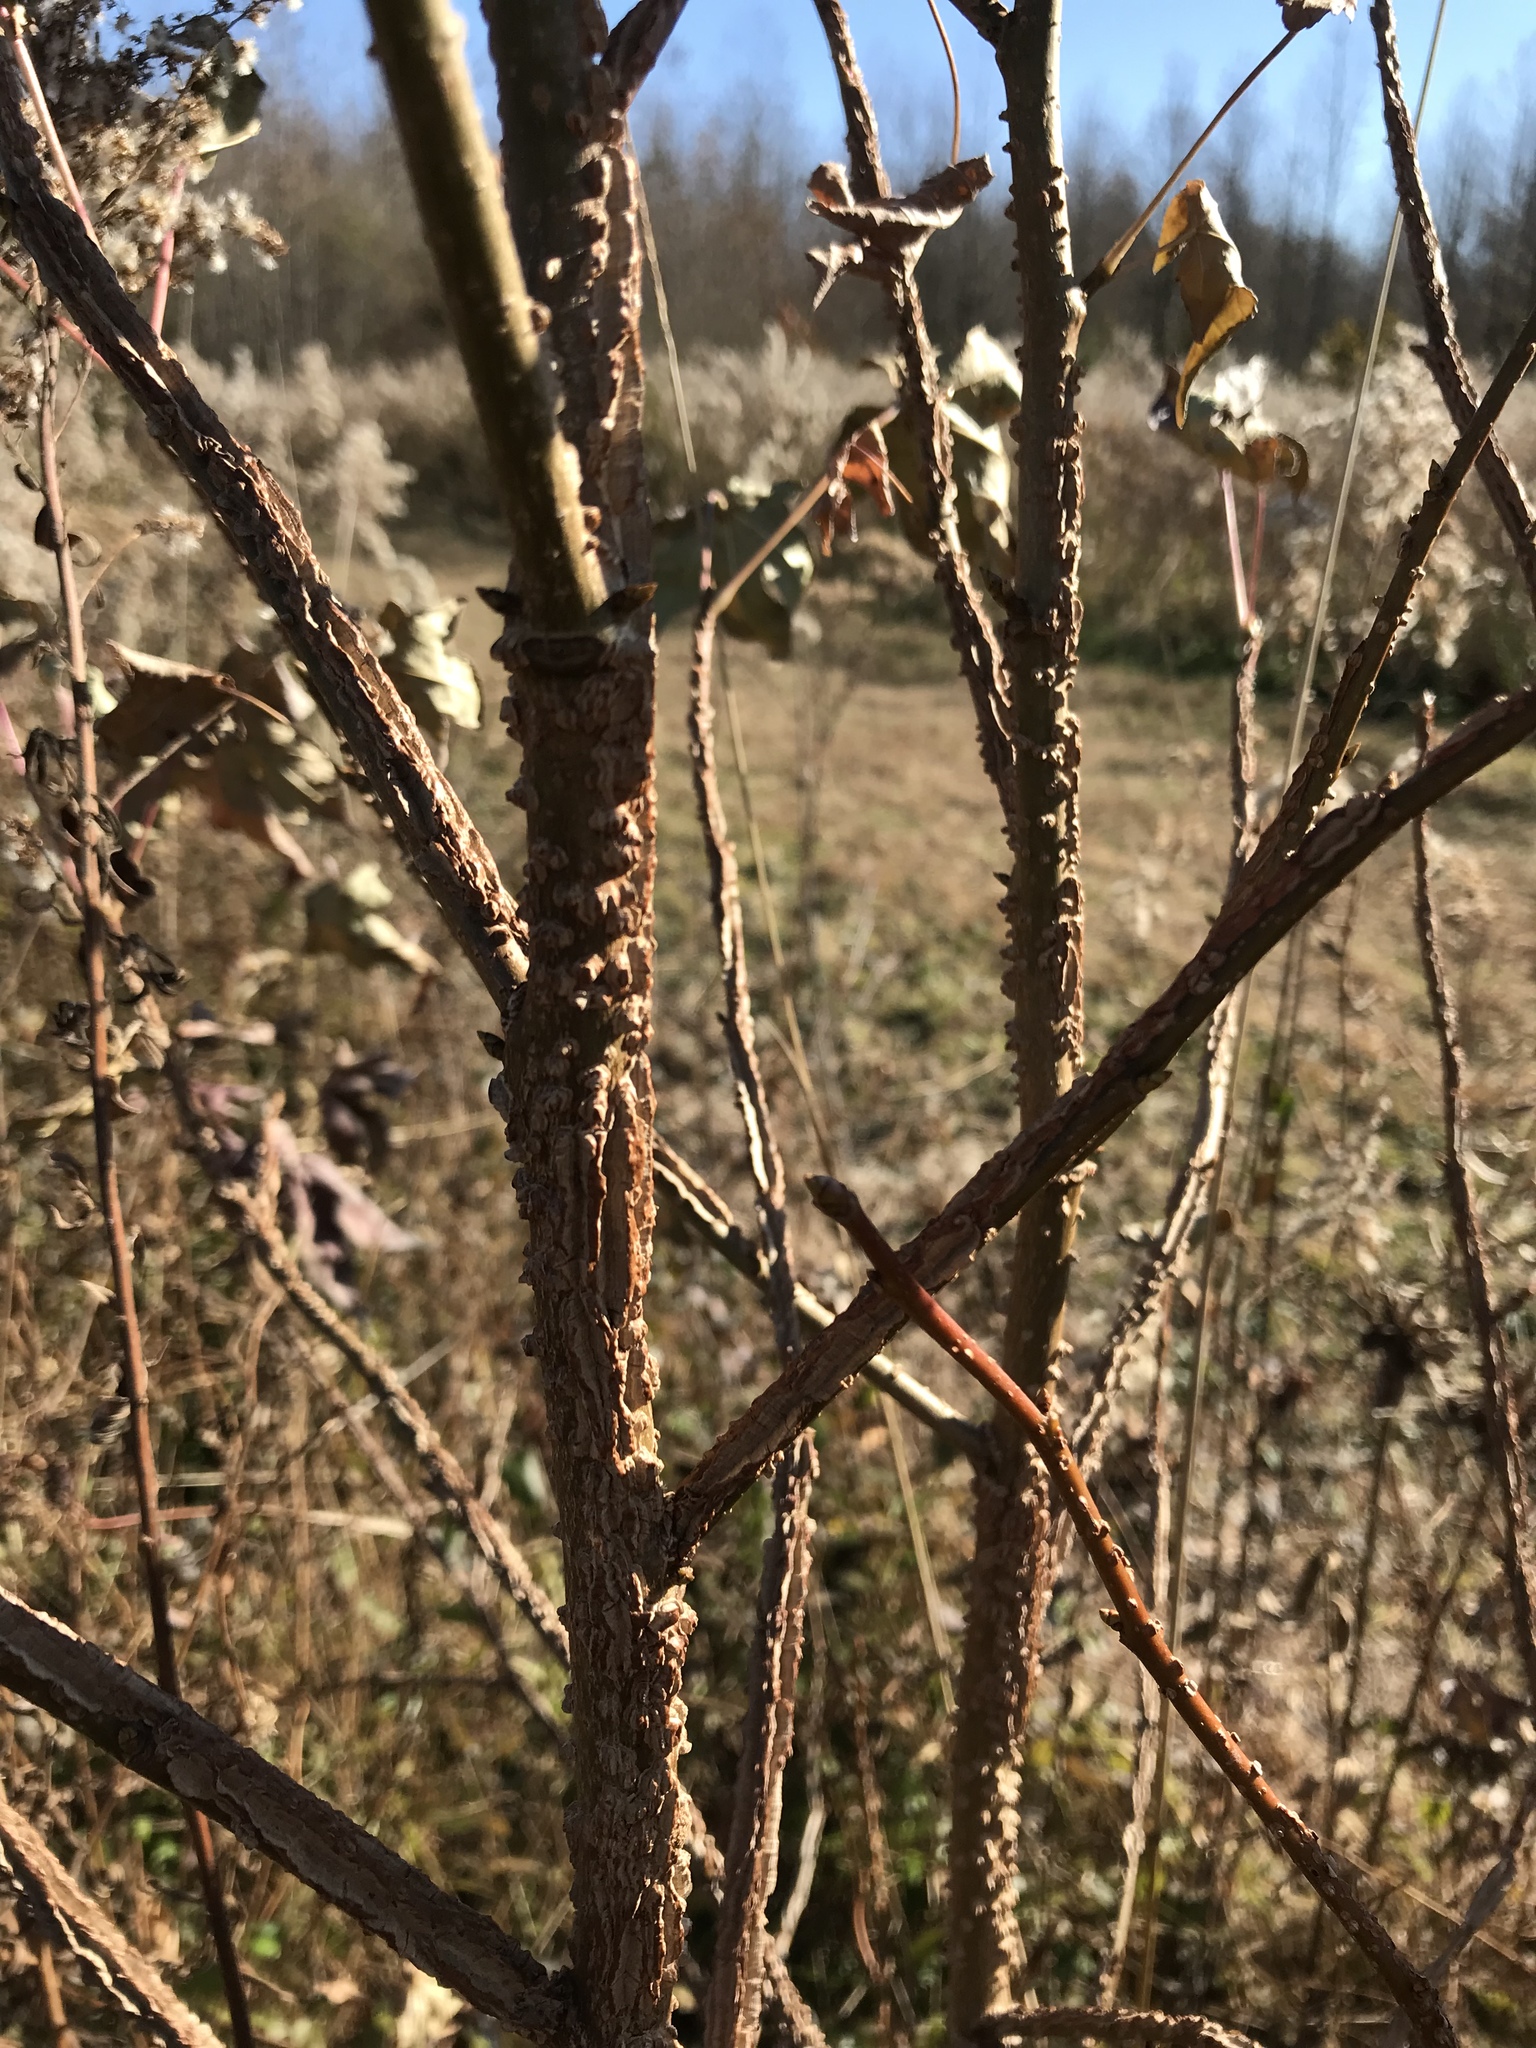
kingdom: Plantae
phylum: Tracheophyta
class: Magnoliopsida
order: Saxifragales
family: Altingiaceae
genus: Liquidambar
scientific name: Liquidambar styraciflua
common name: Sweet gum
